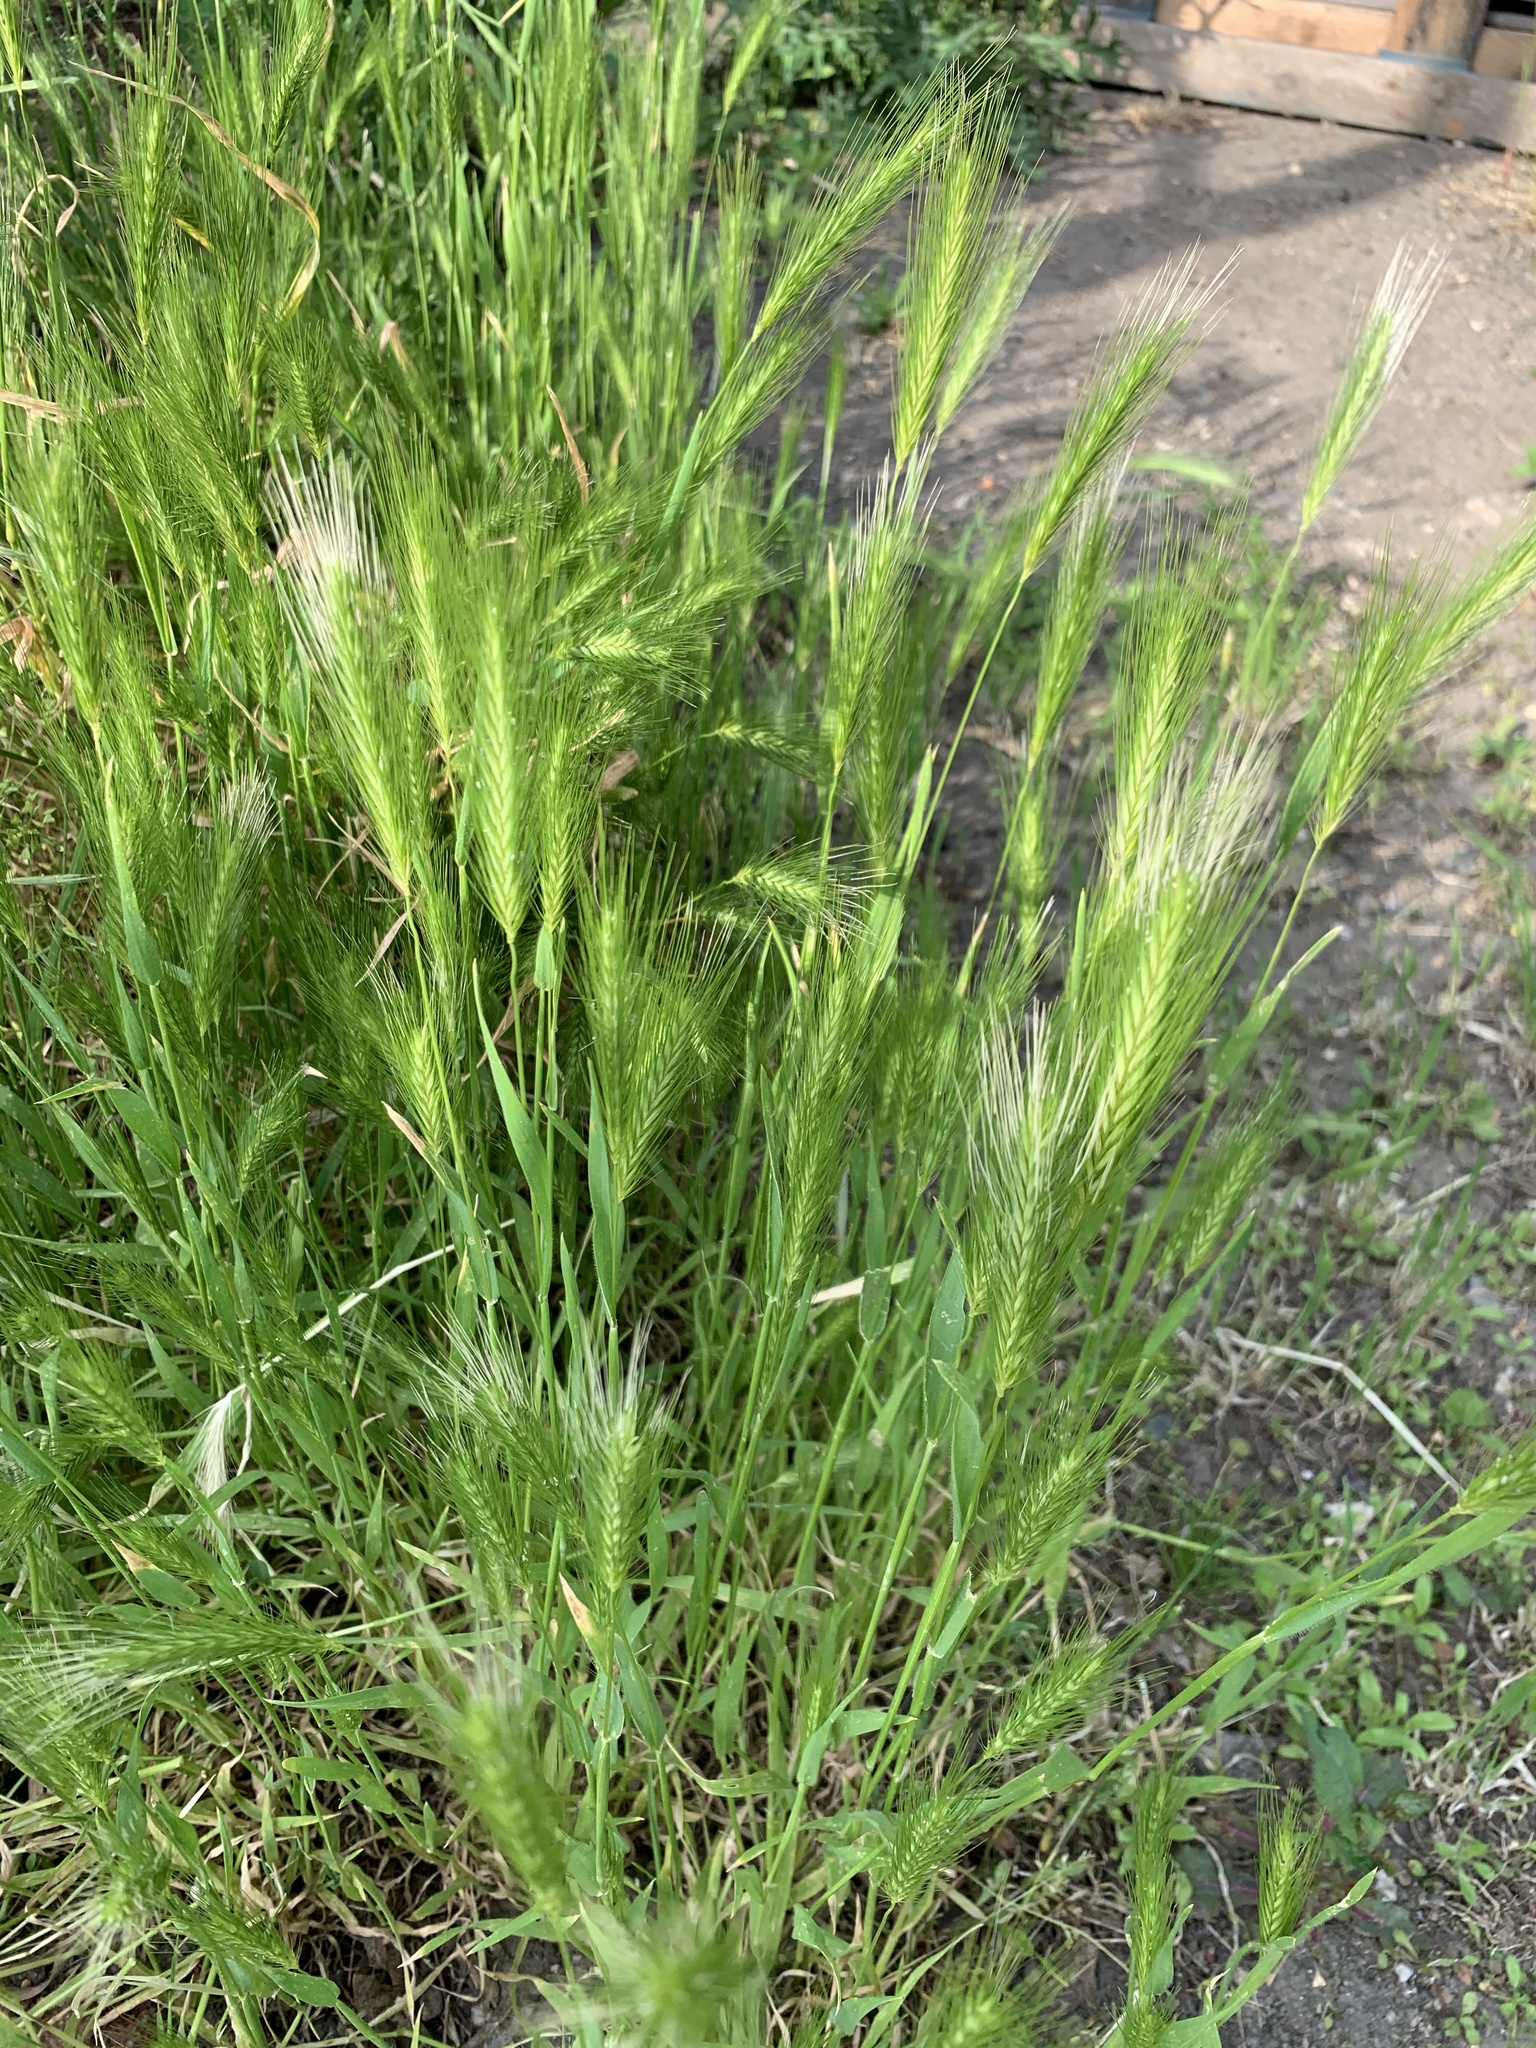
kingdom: Plantae
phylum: Tracheophyta
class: Liliopsida
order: Poales
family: Poaceae
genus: Hordeum
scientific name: Hordeum murinum
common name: Wall barley
